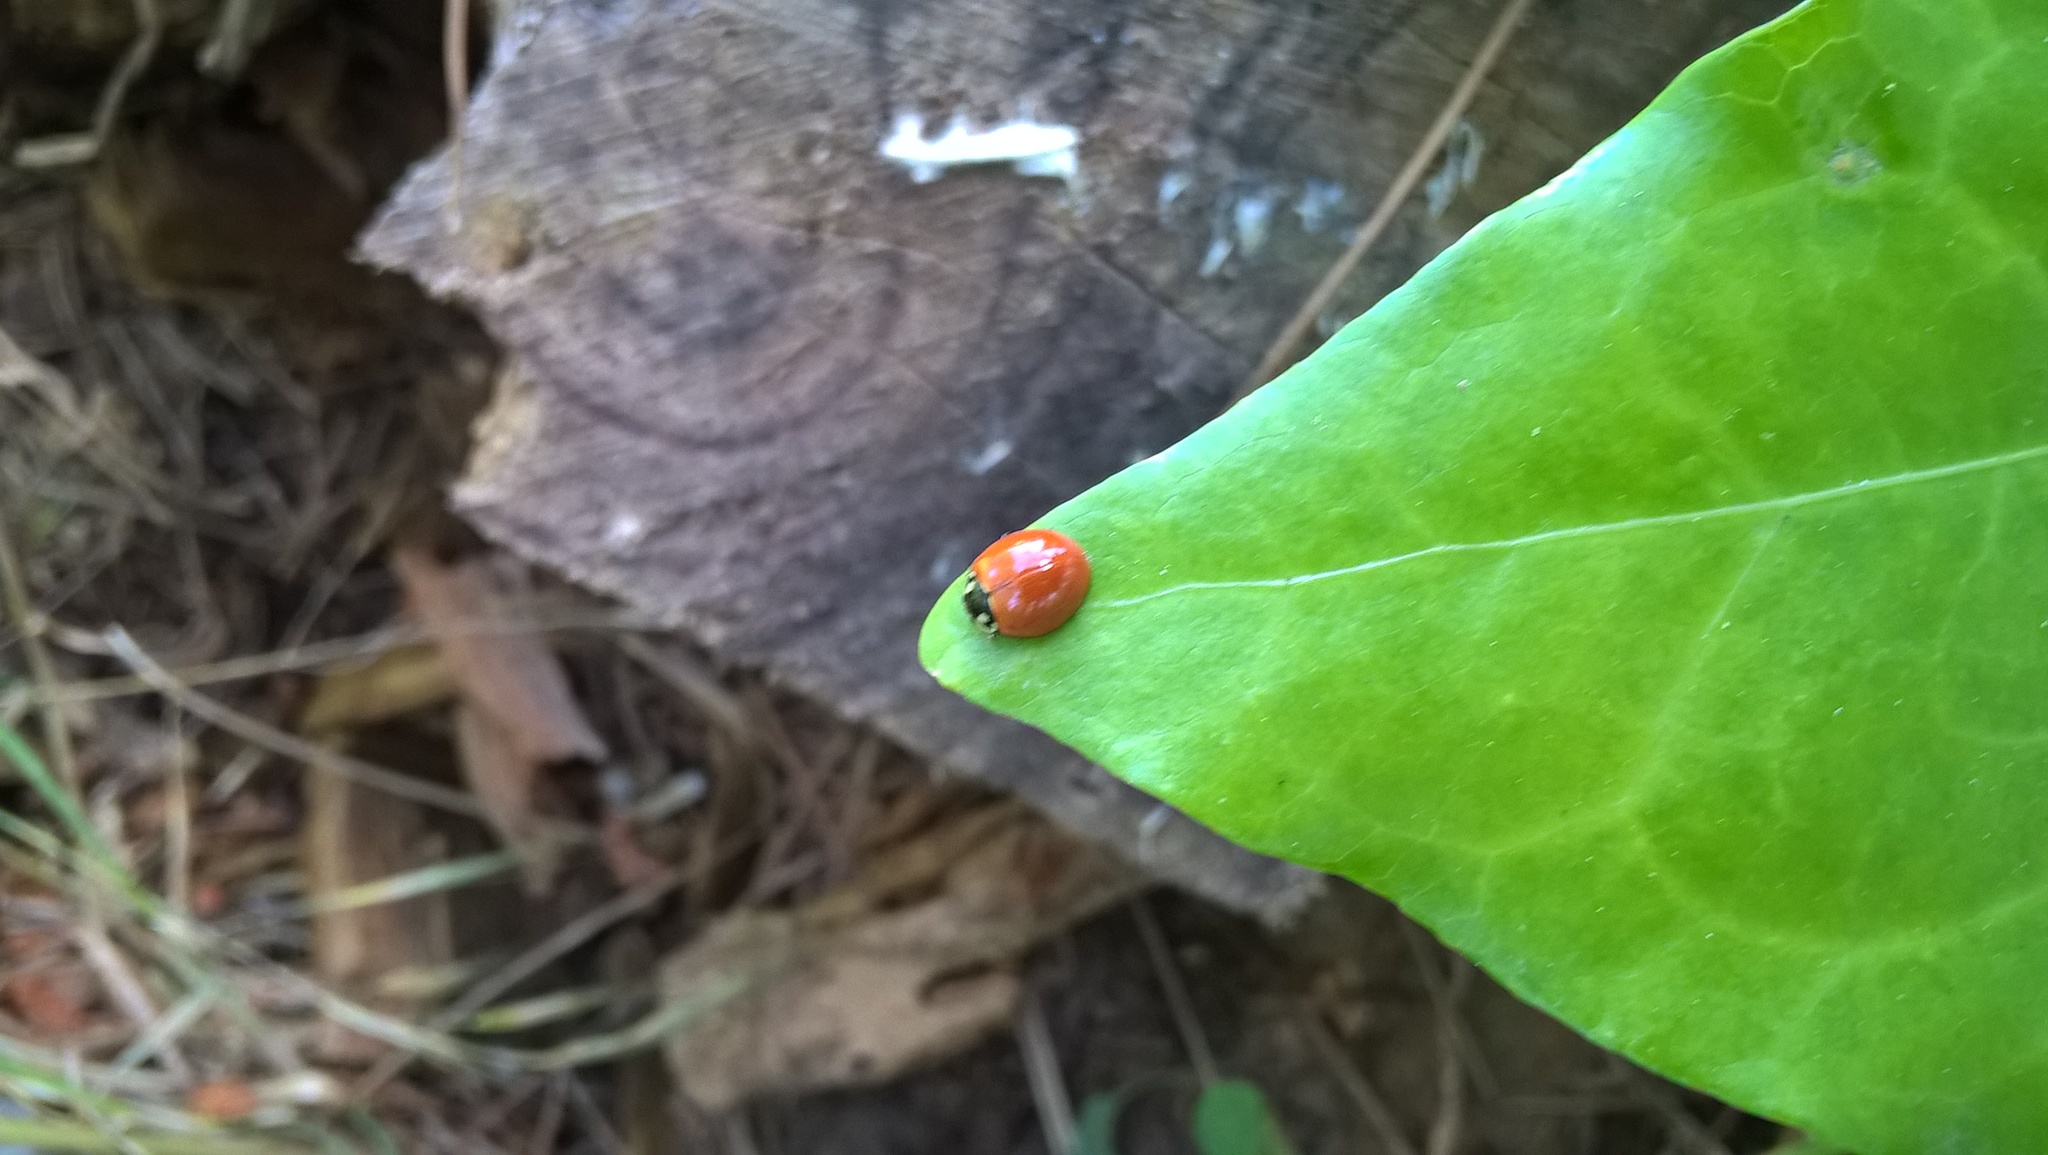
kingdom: Animalia
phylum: Arthropoda
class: Insecta
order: Coleoptera
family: Coccinellidae
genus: Cycloneda
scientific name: Cycloneda sanguinea
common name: Ladybird beetle
